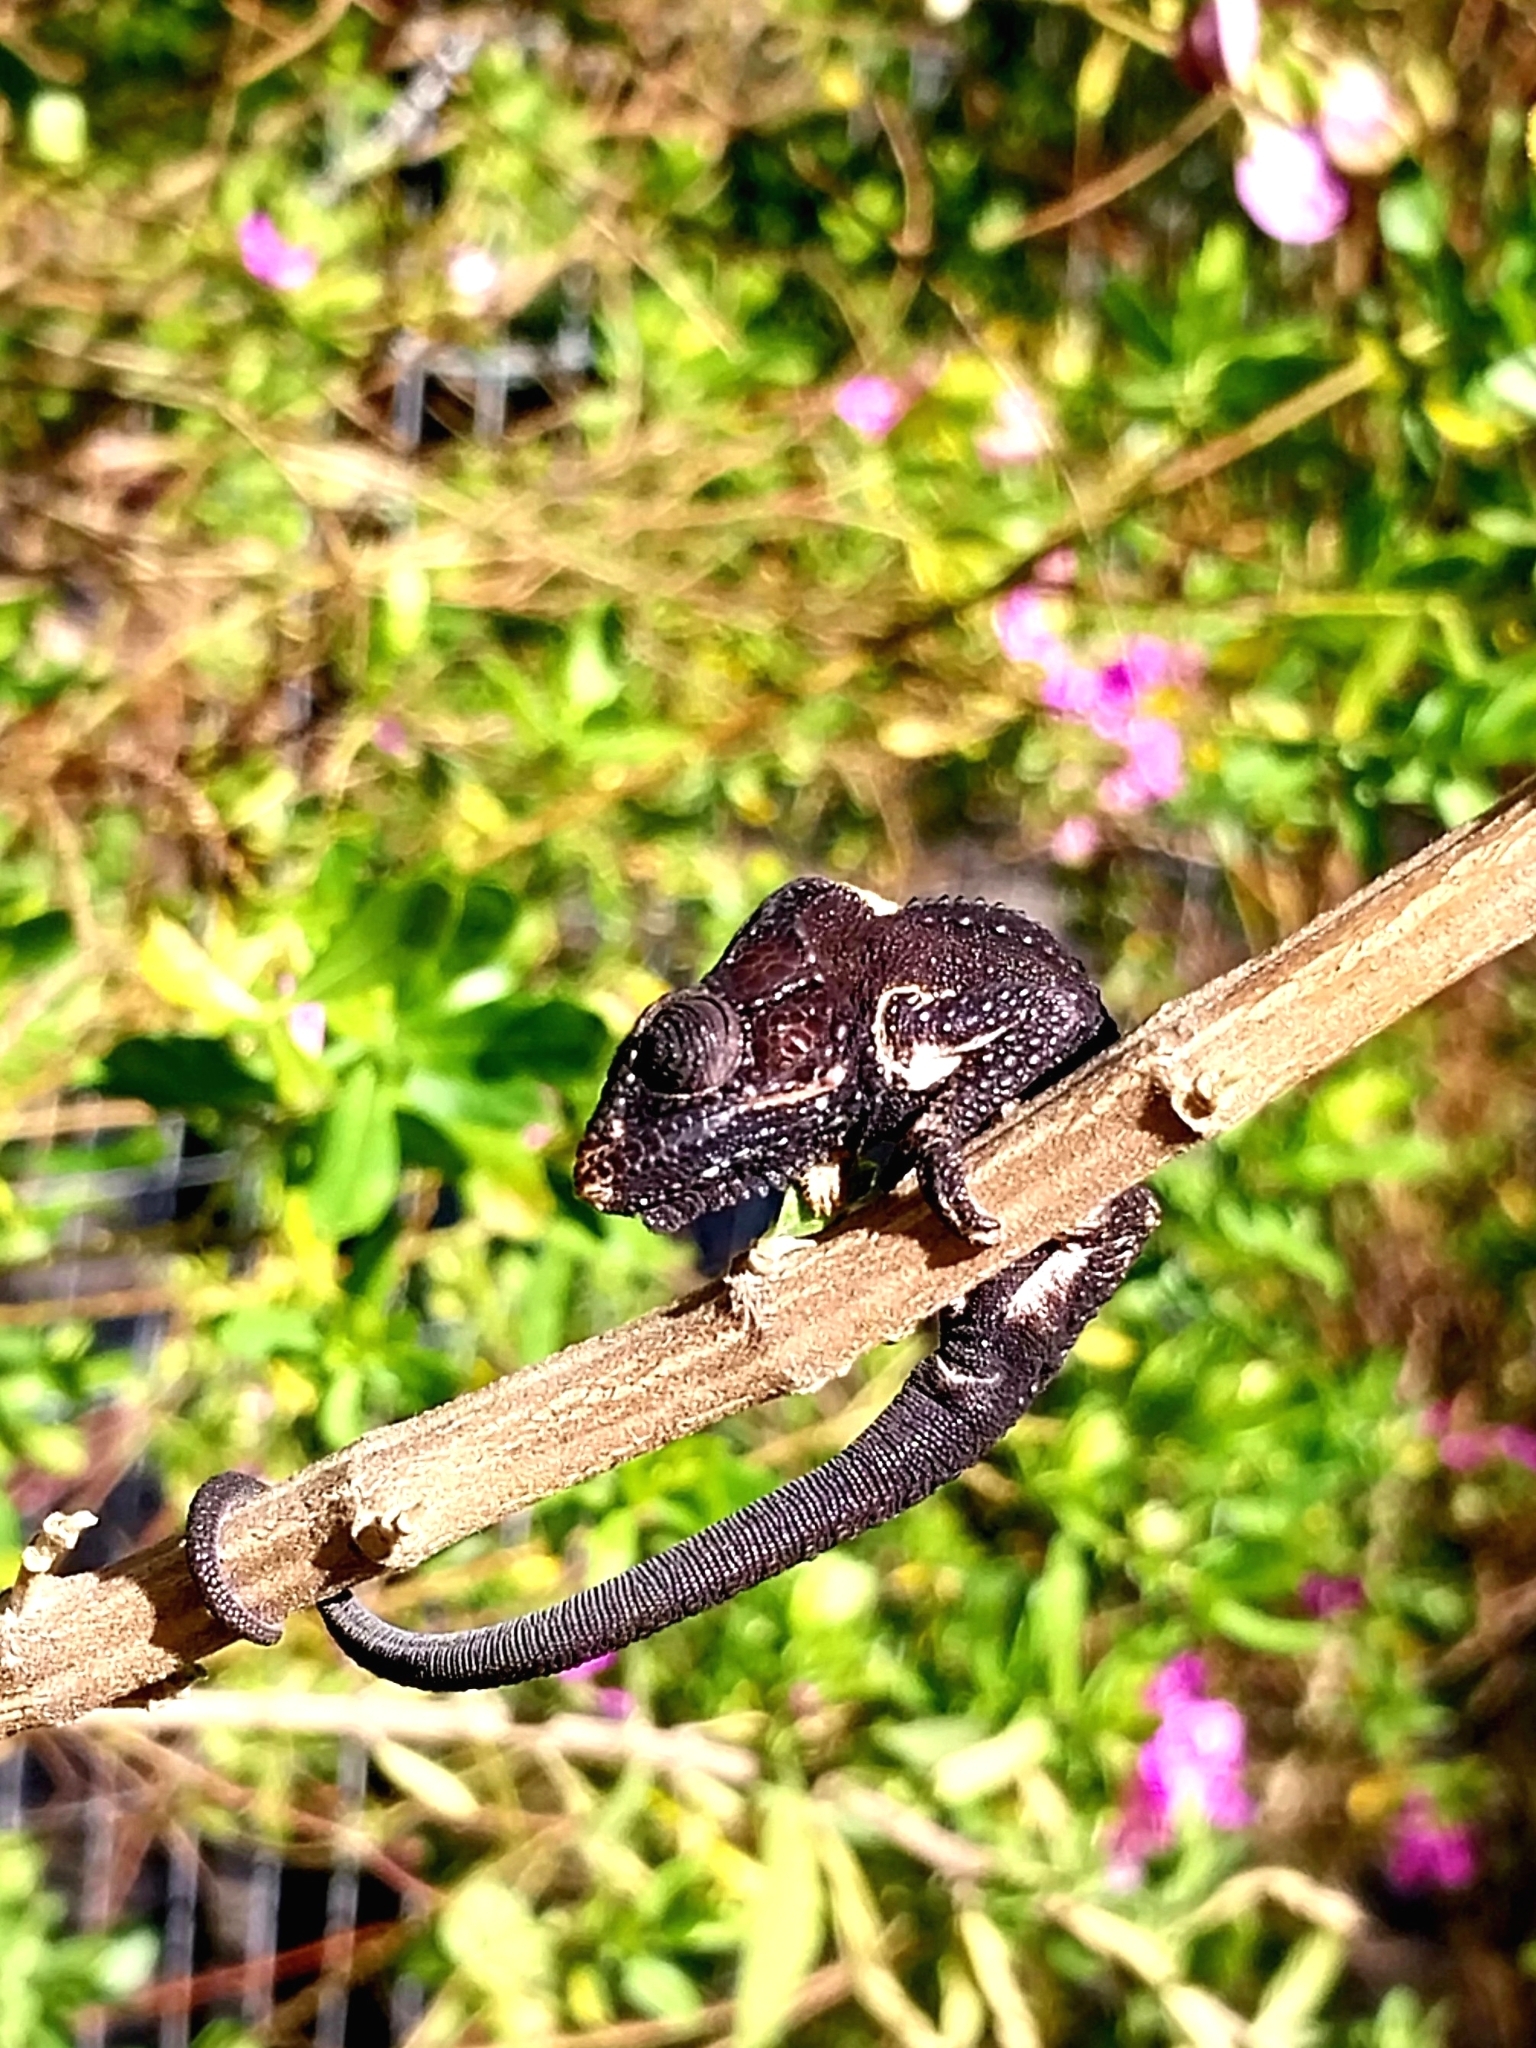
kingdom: Animalia
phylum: Chordata
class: Squamata
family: Chamaeleonidae
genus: Bradypodion
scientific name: Bradypodion damaranum
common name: Knysna dwarf chameleon
